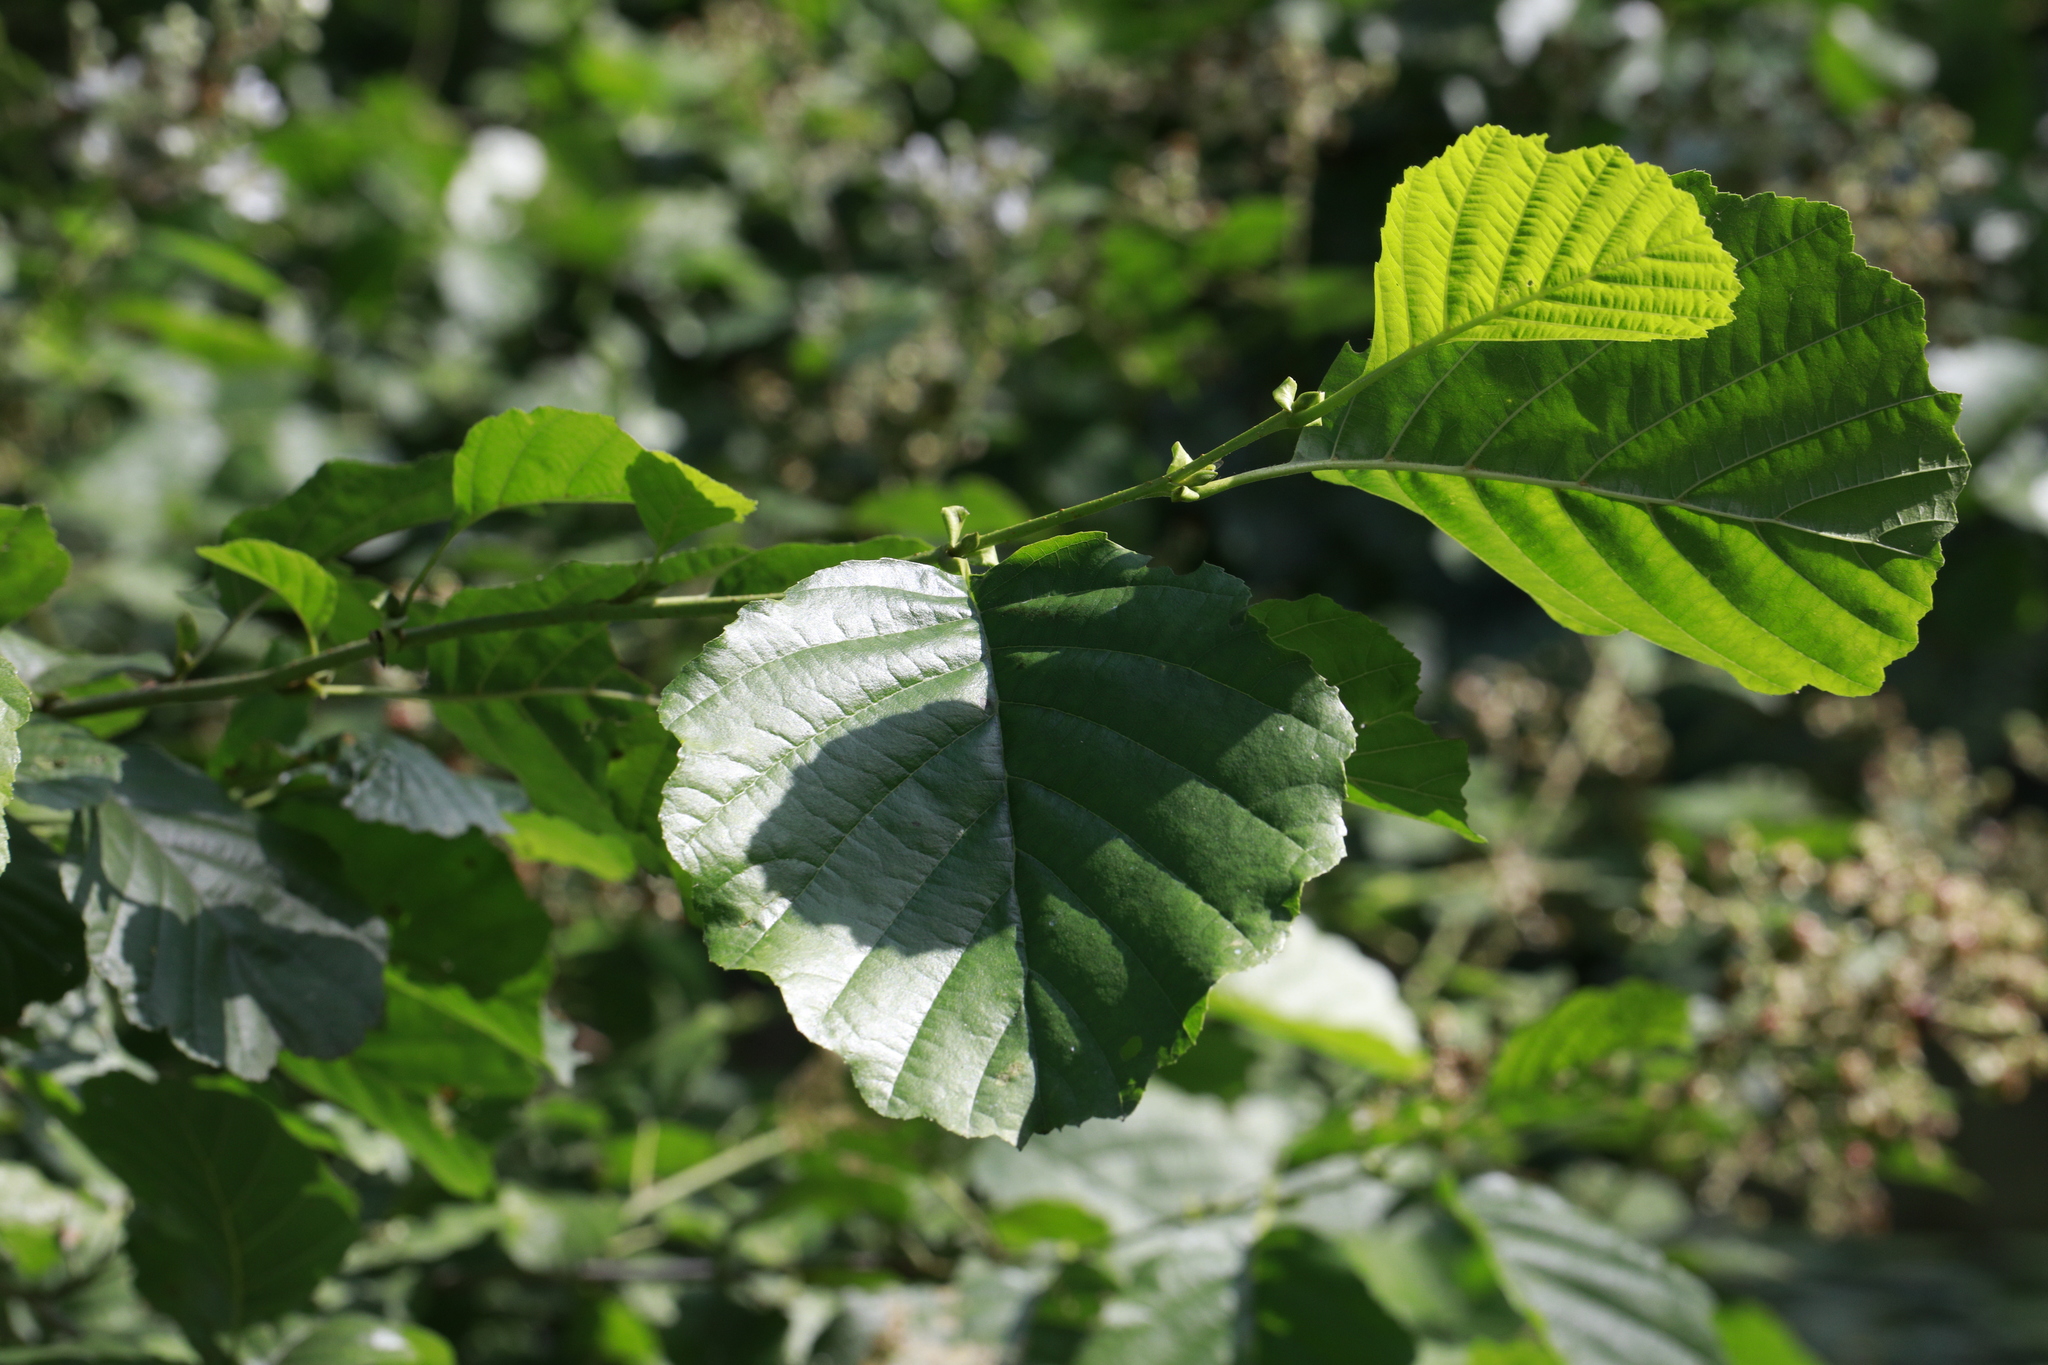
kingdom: Plantae
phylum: Tracheophyta
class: Magnoliopsida
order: Fagales
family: Betulaceae
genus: Alnus
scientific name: Alnus glutinosa
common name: Black alder
